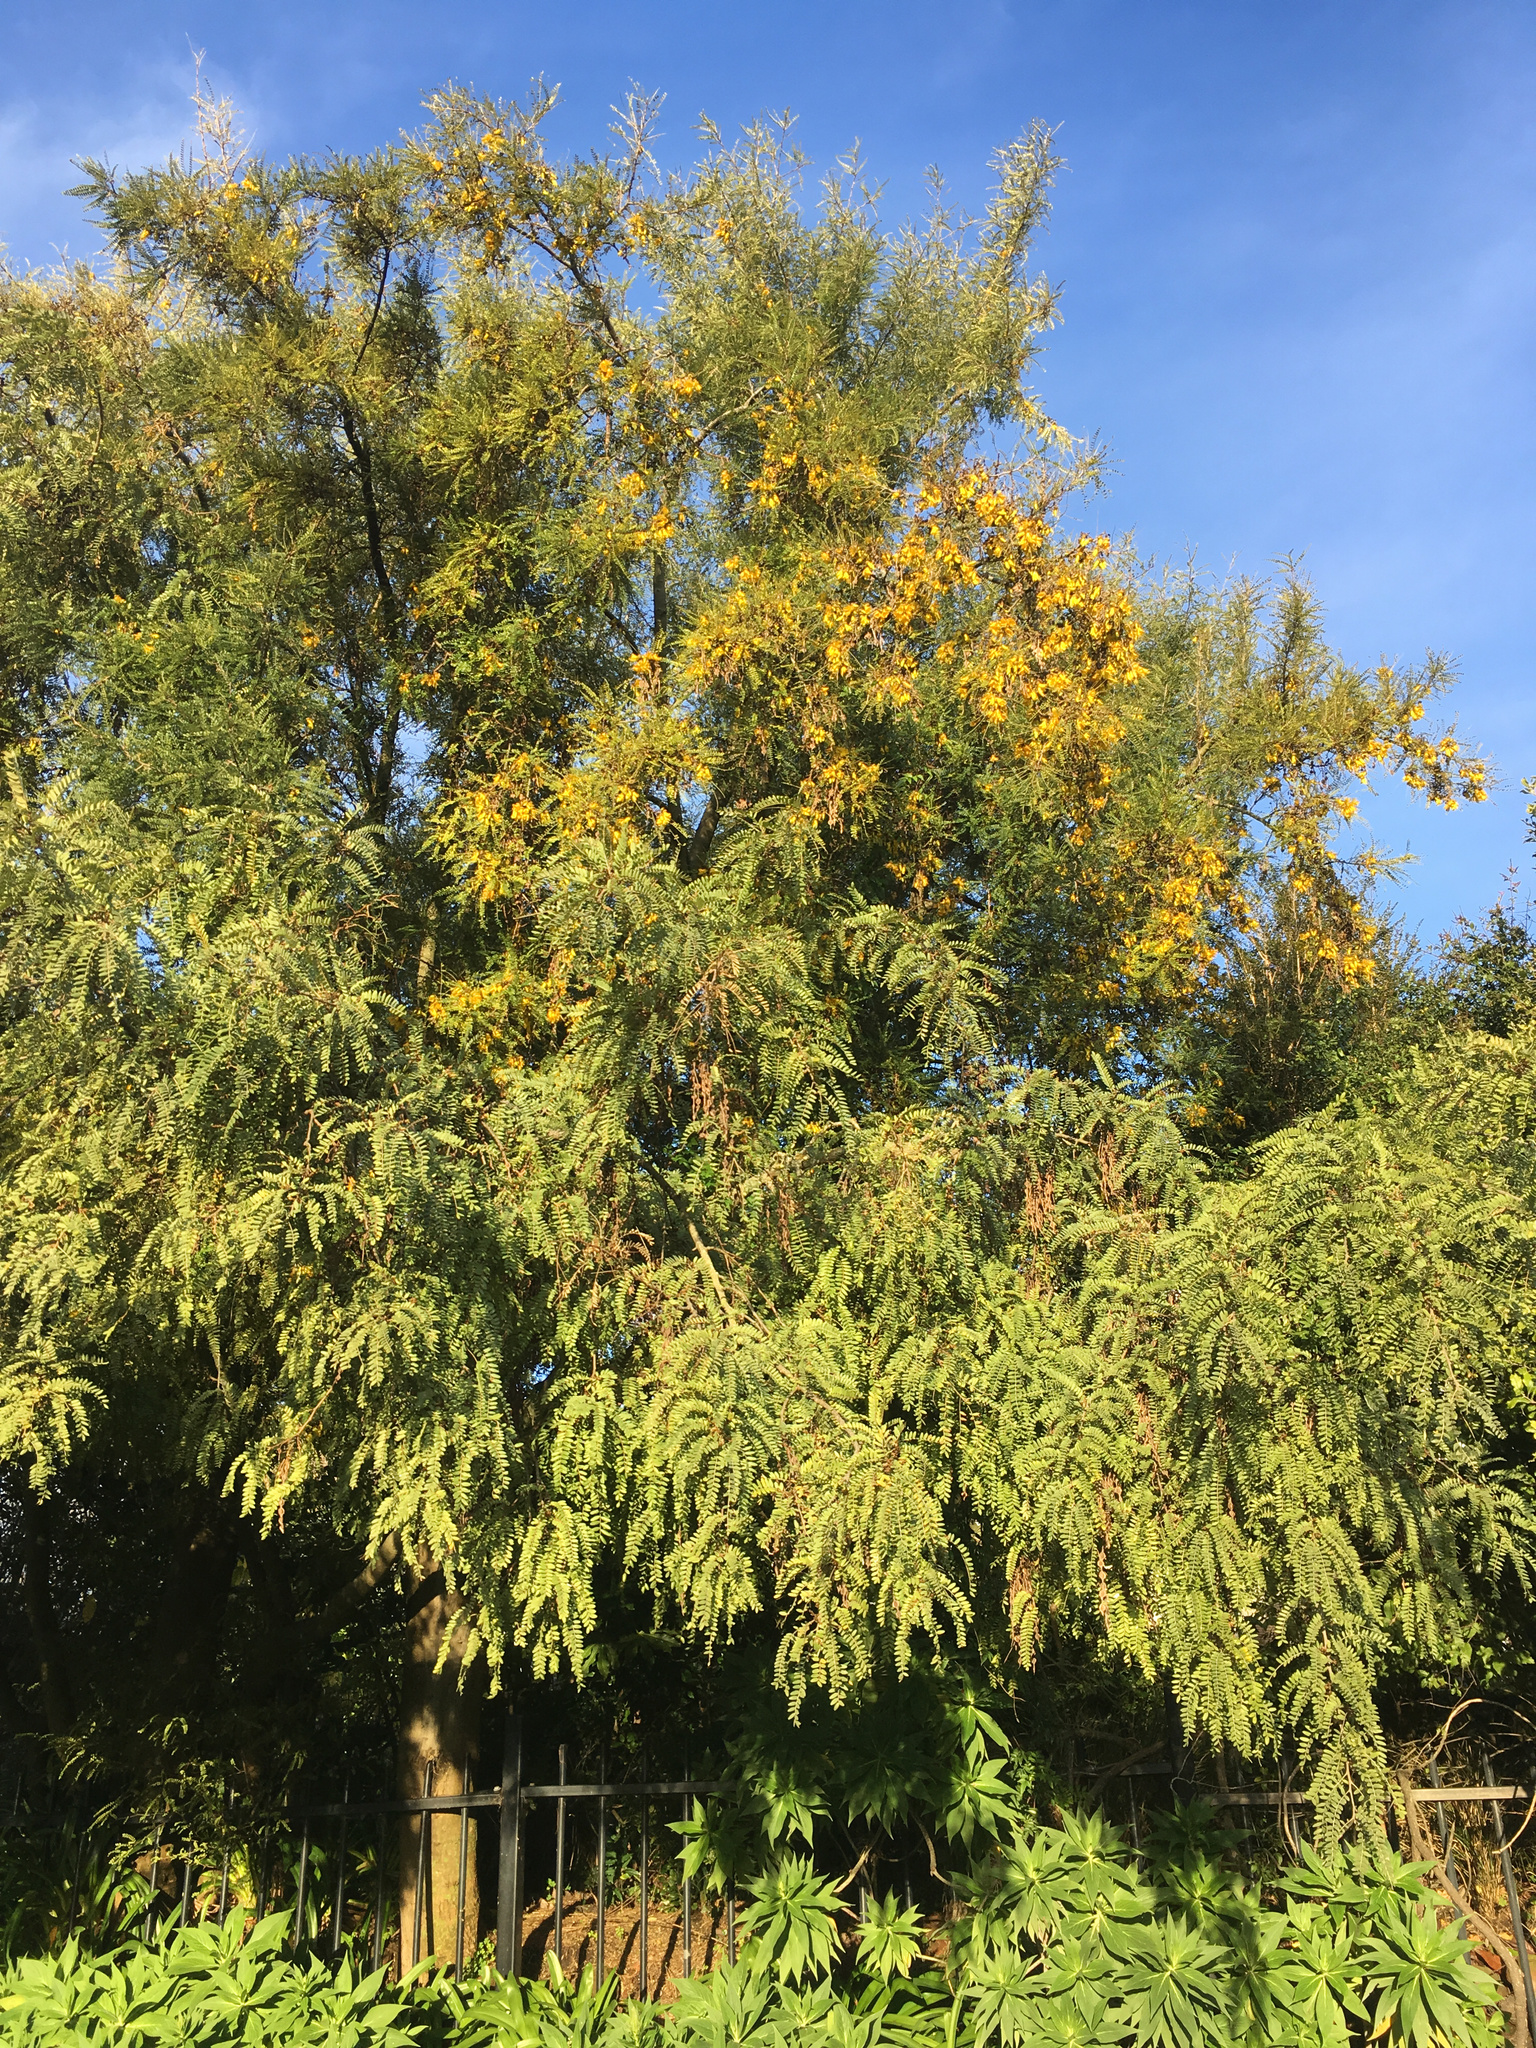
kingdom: Plantae
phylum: Tracheophyta
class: Magnoliopsida
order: Fabales
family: Fabaceae
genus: Sophora
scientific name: Sophora microphylla
